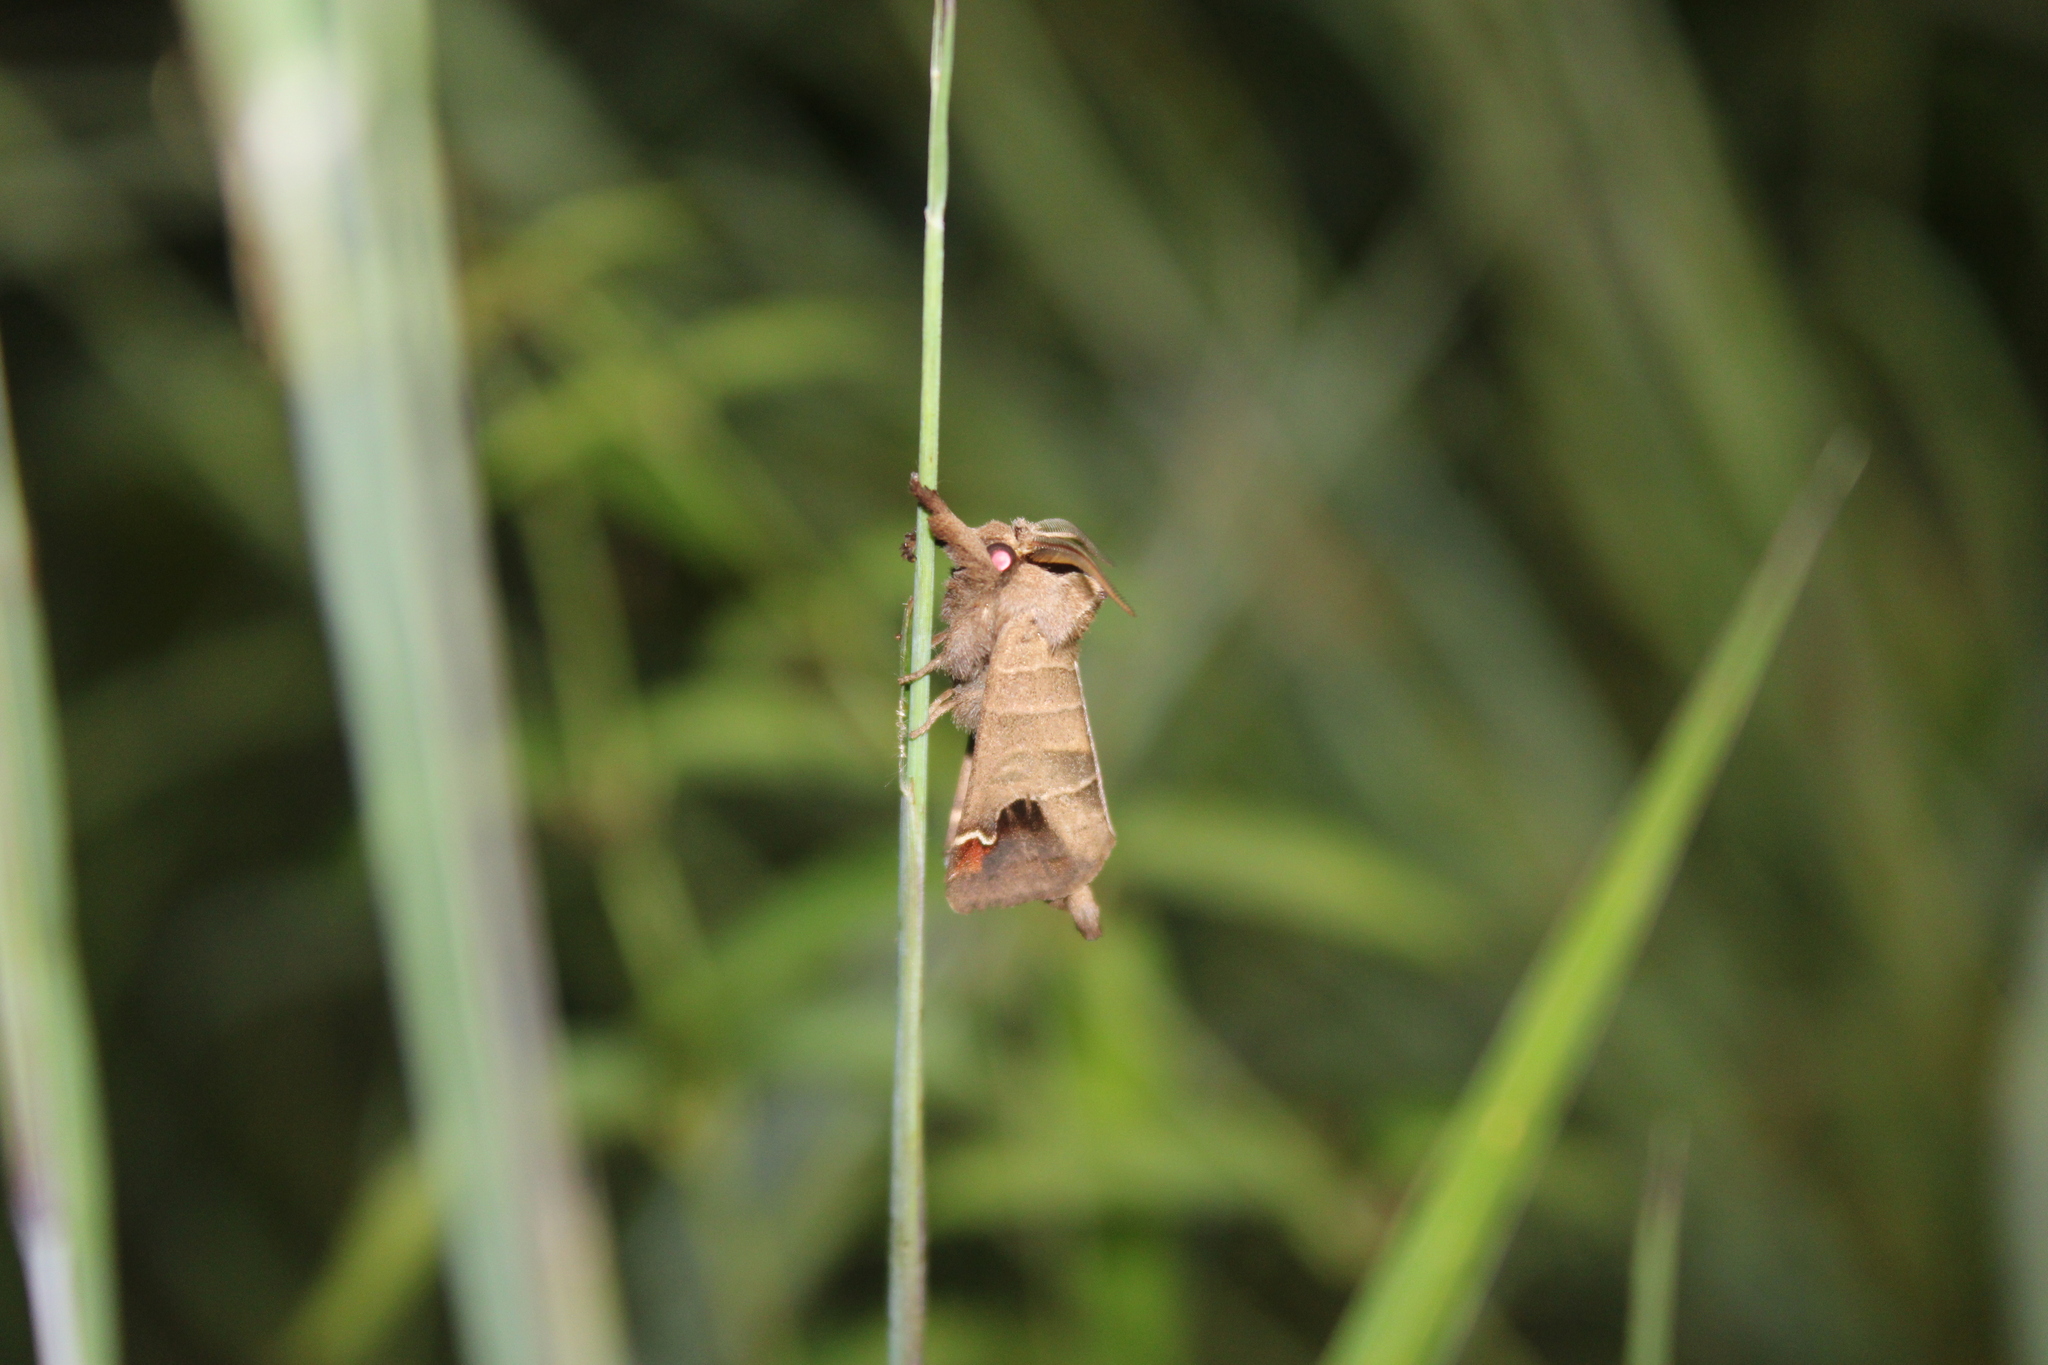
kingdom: Animalia
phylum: Arthropoda
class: Insecta
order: Lepidoptera
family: Notodontidae
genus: Clostera
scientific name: Clostera albosigma
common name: Sigmoid prominent
